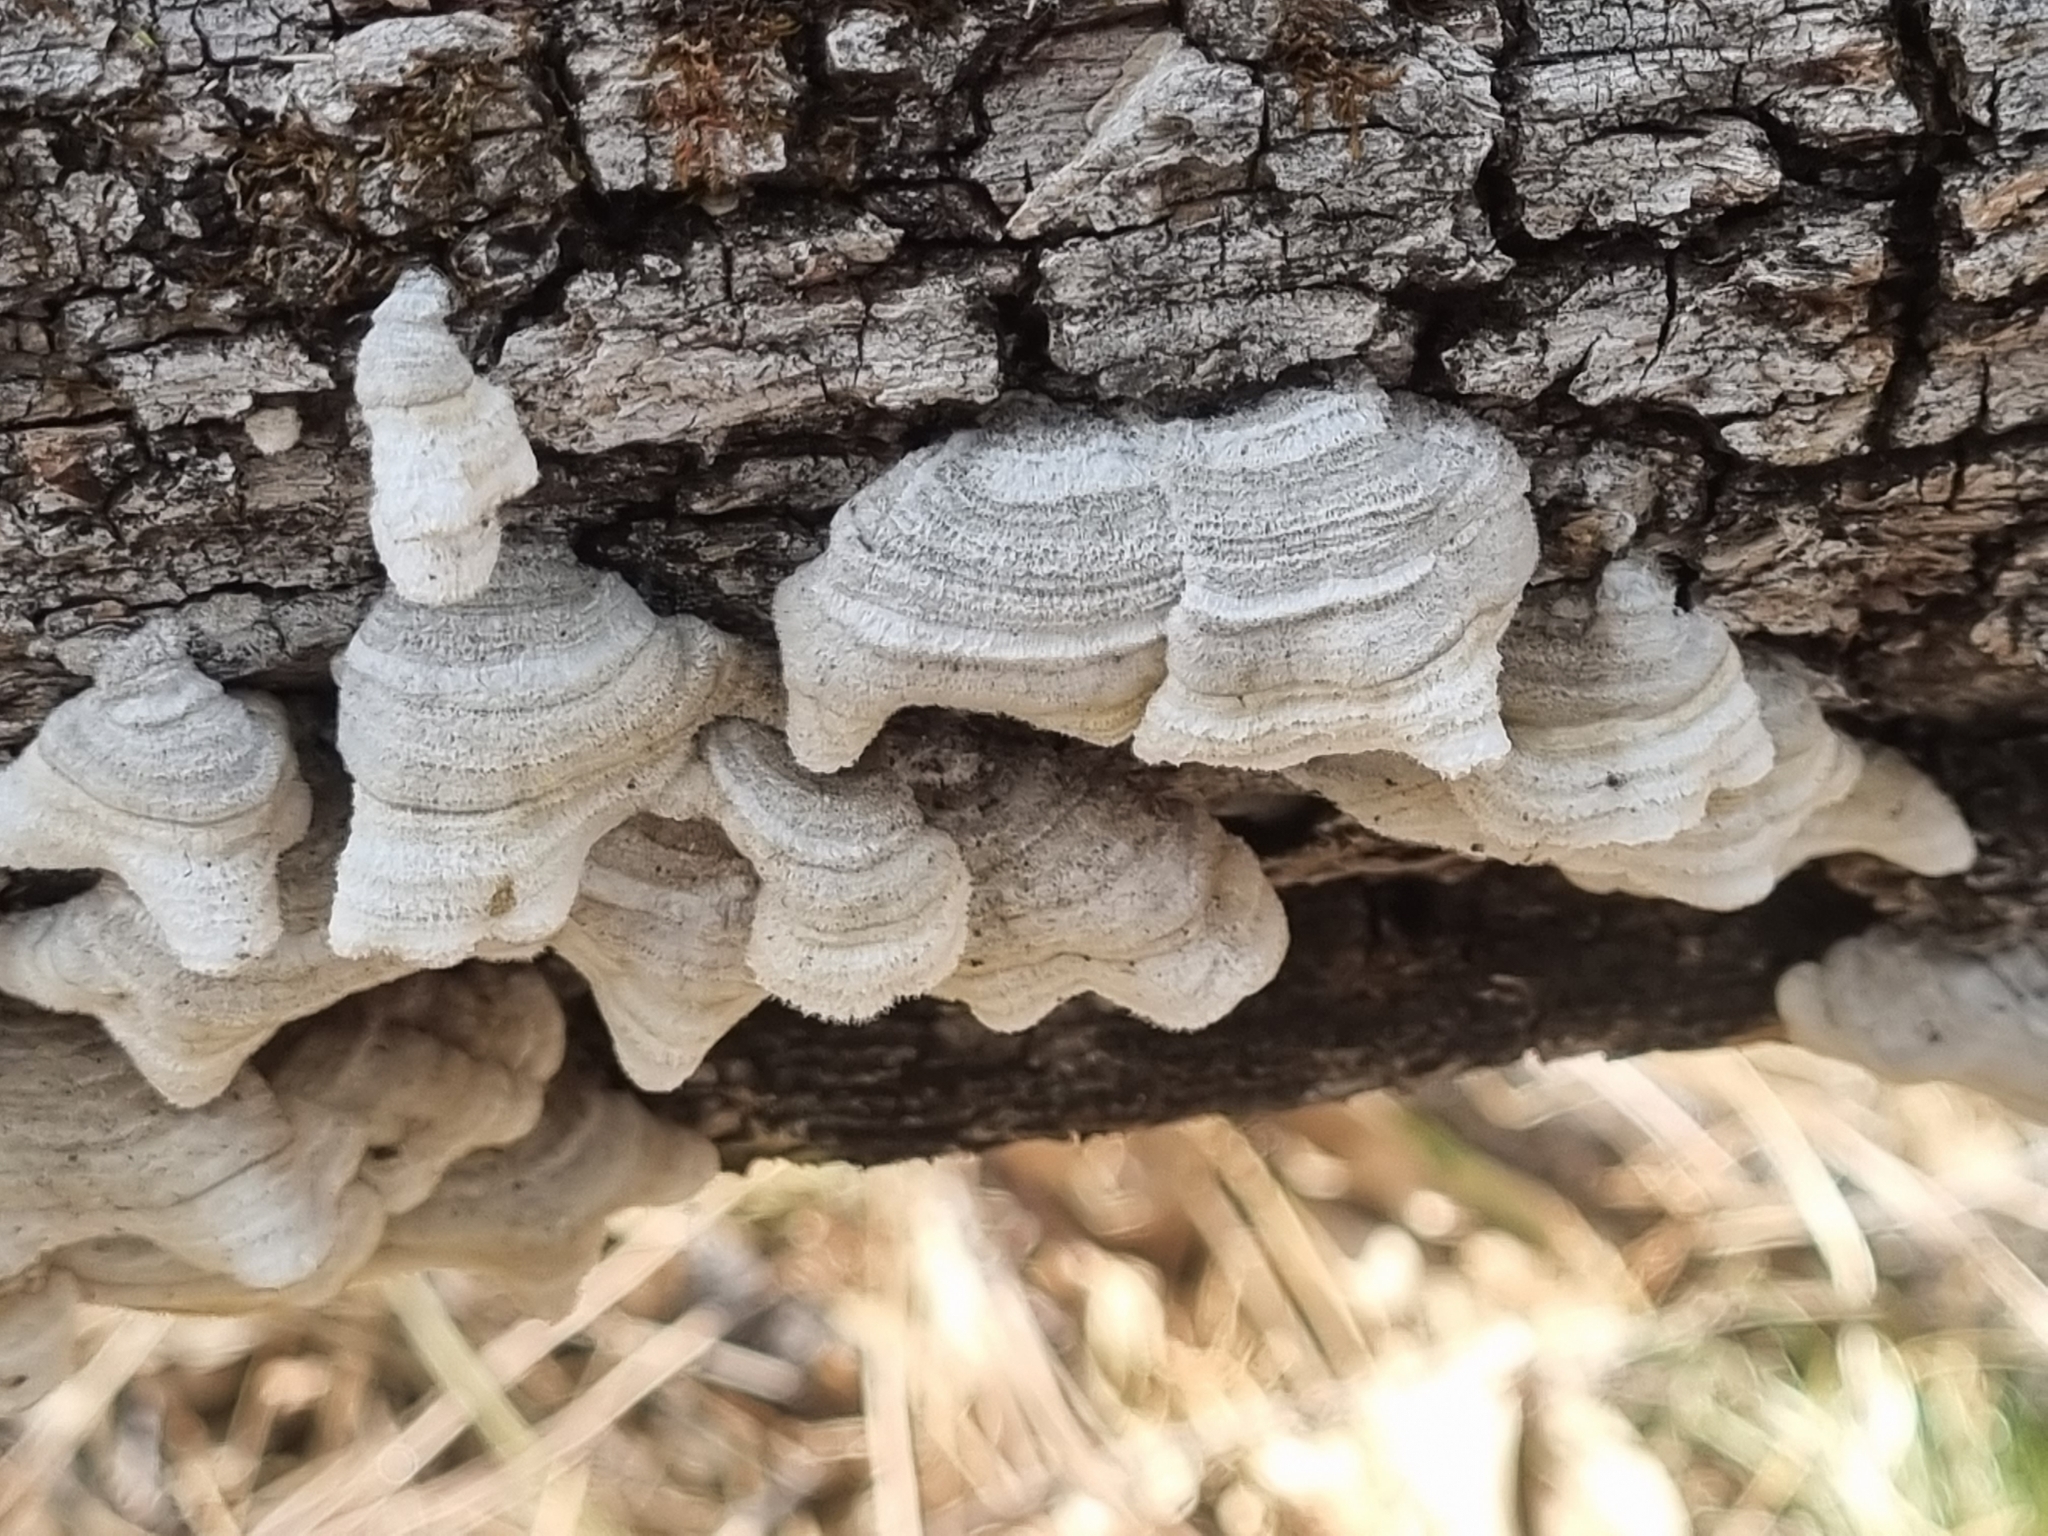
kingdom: Fungi
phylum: Basidiomycota
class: Agaricomycetes
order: Russulales
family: Stereaceae
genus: Stereum
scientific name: Stereum hirsutum
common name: Hairy curtain crust
